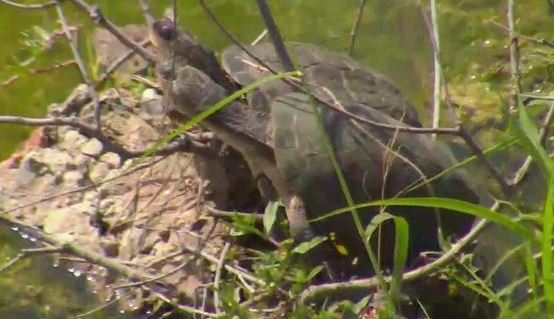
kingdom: Animalia
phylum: Chordata
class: Testudines
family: Pelomedusidae
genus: Pelomedusa
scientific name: Pelomedusa subrufa
